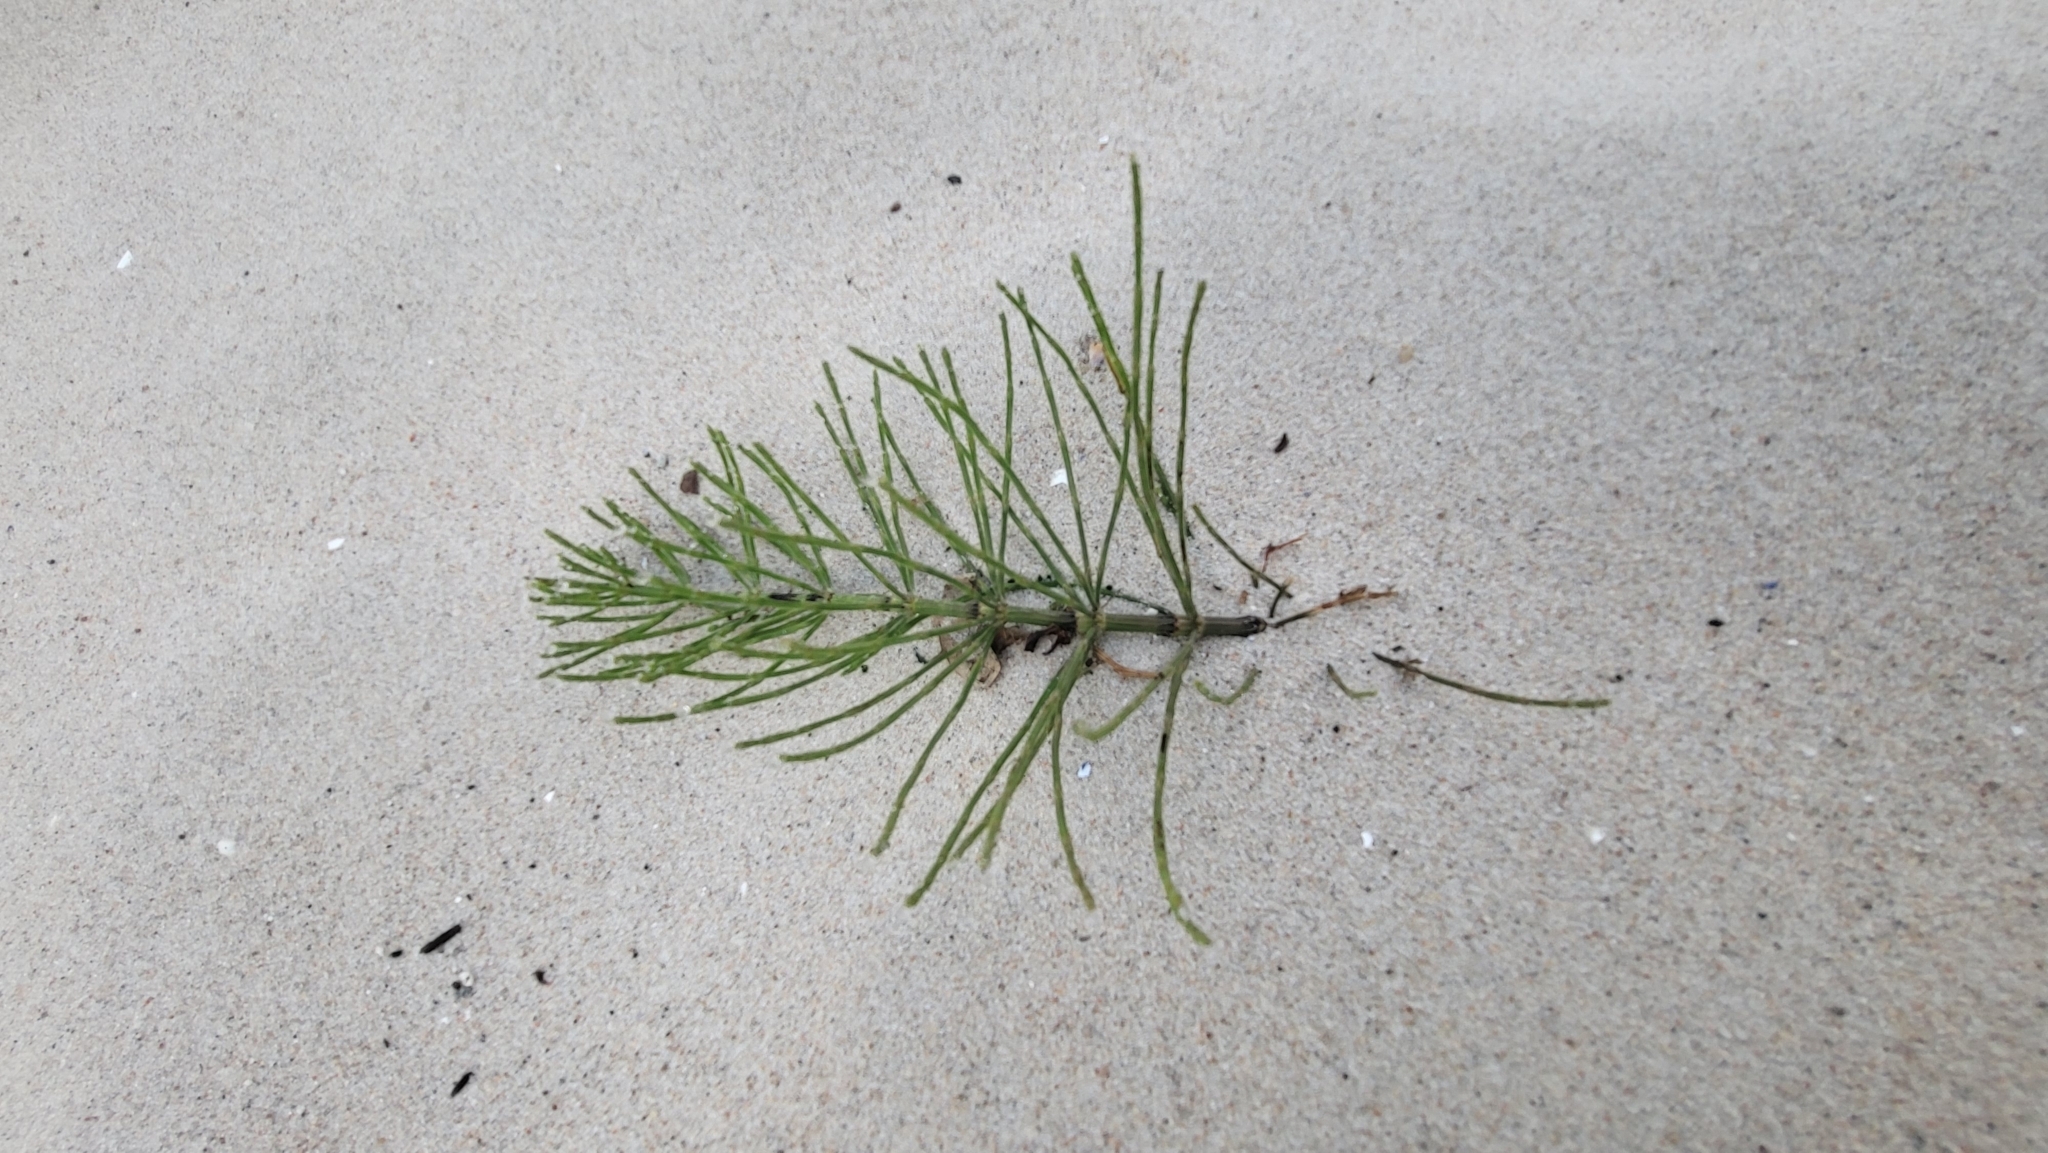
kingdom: Plantae
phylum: Tracheophyta
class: Polypodiopsida
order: Equisetales
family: Equisetaceae
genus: Equisetum
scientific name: Equisetum arvense
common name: Field horsetail
